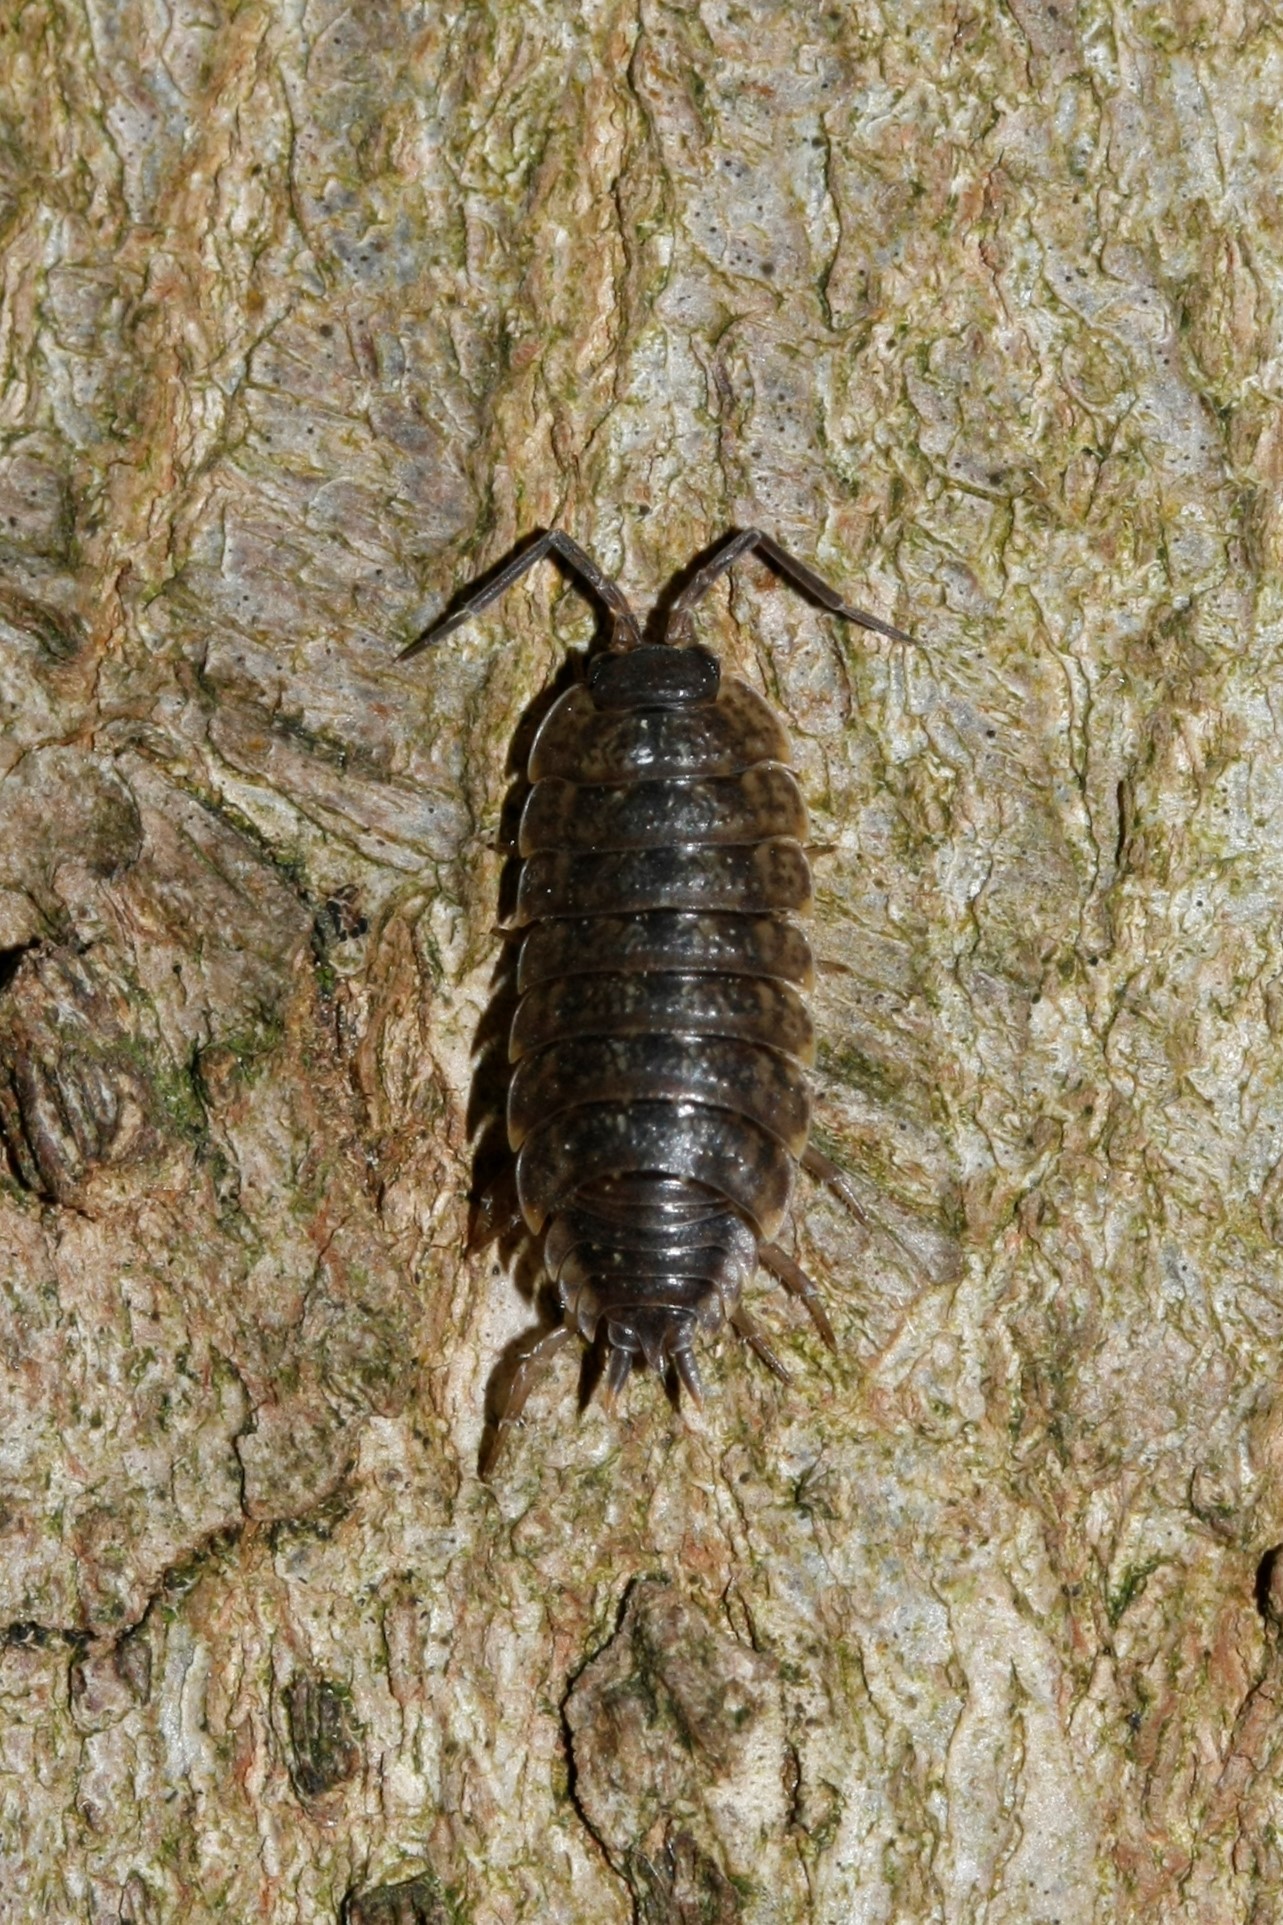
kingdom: Animalia
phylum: Arthropoda
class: Malacostraca
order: Isopoda
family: Porcellionidae
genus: Porcellio
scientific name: Porcellio monticola
